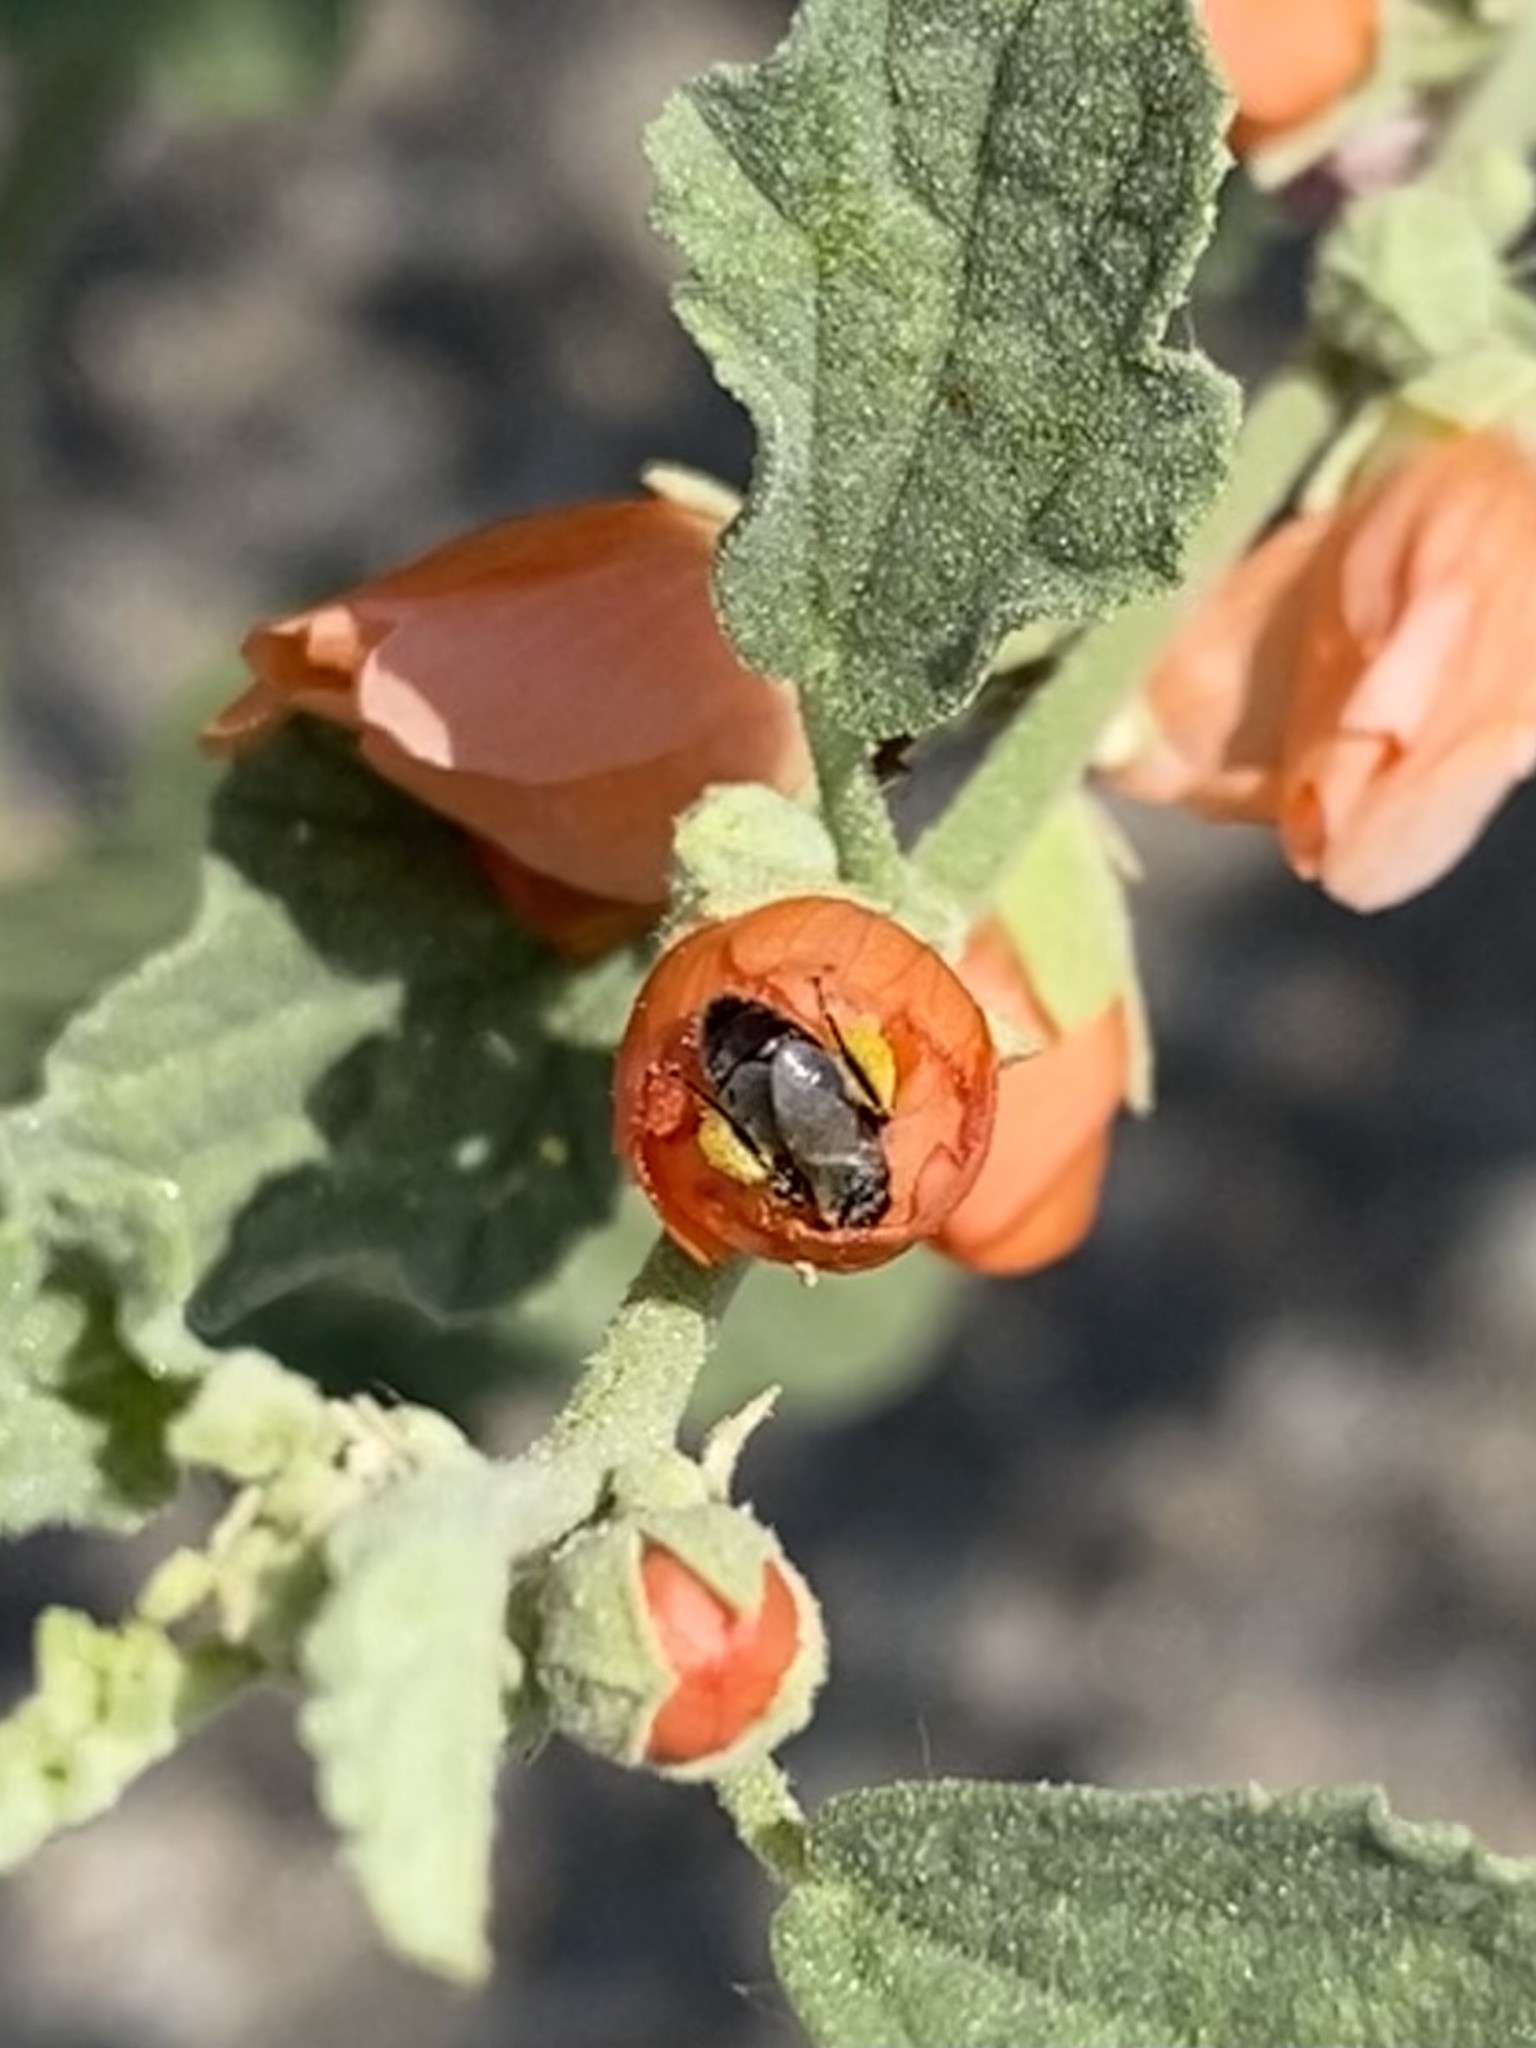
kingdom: Animalia
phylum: Arthropoda
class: Insecta
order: Hymenoptera
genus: Macroteropsis
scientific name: Macroteropsis
